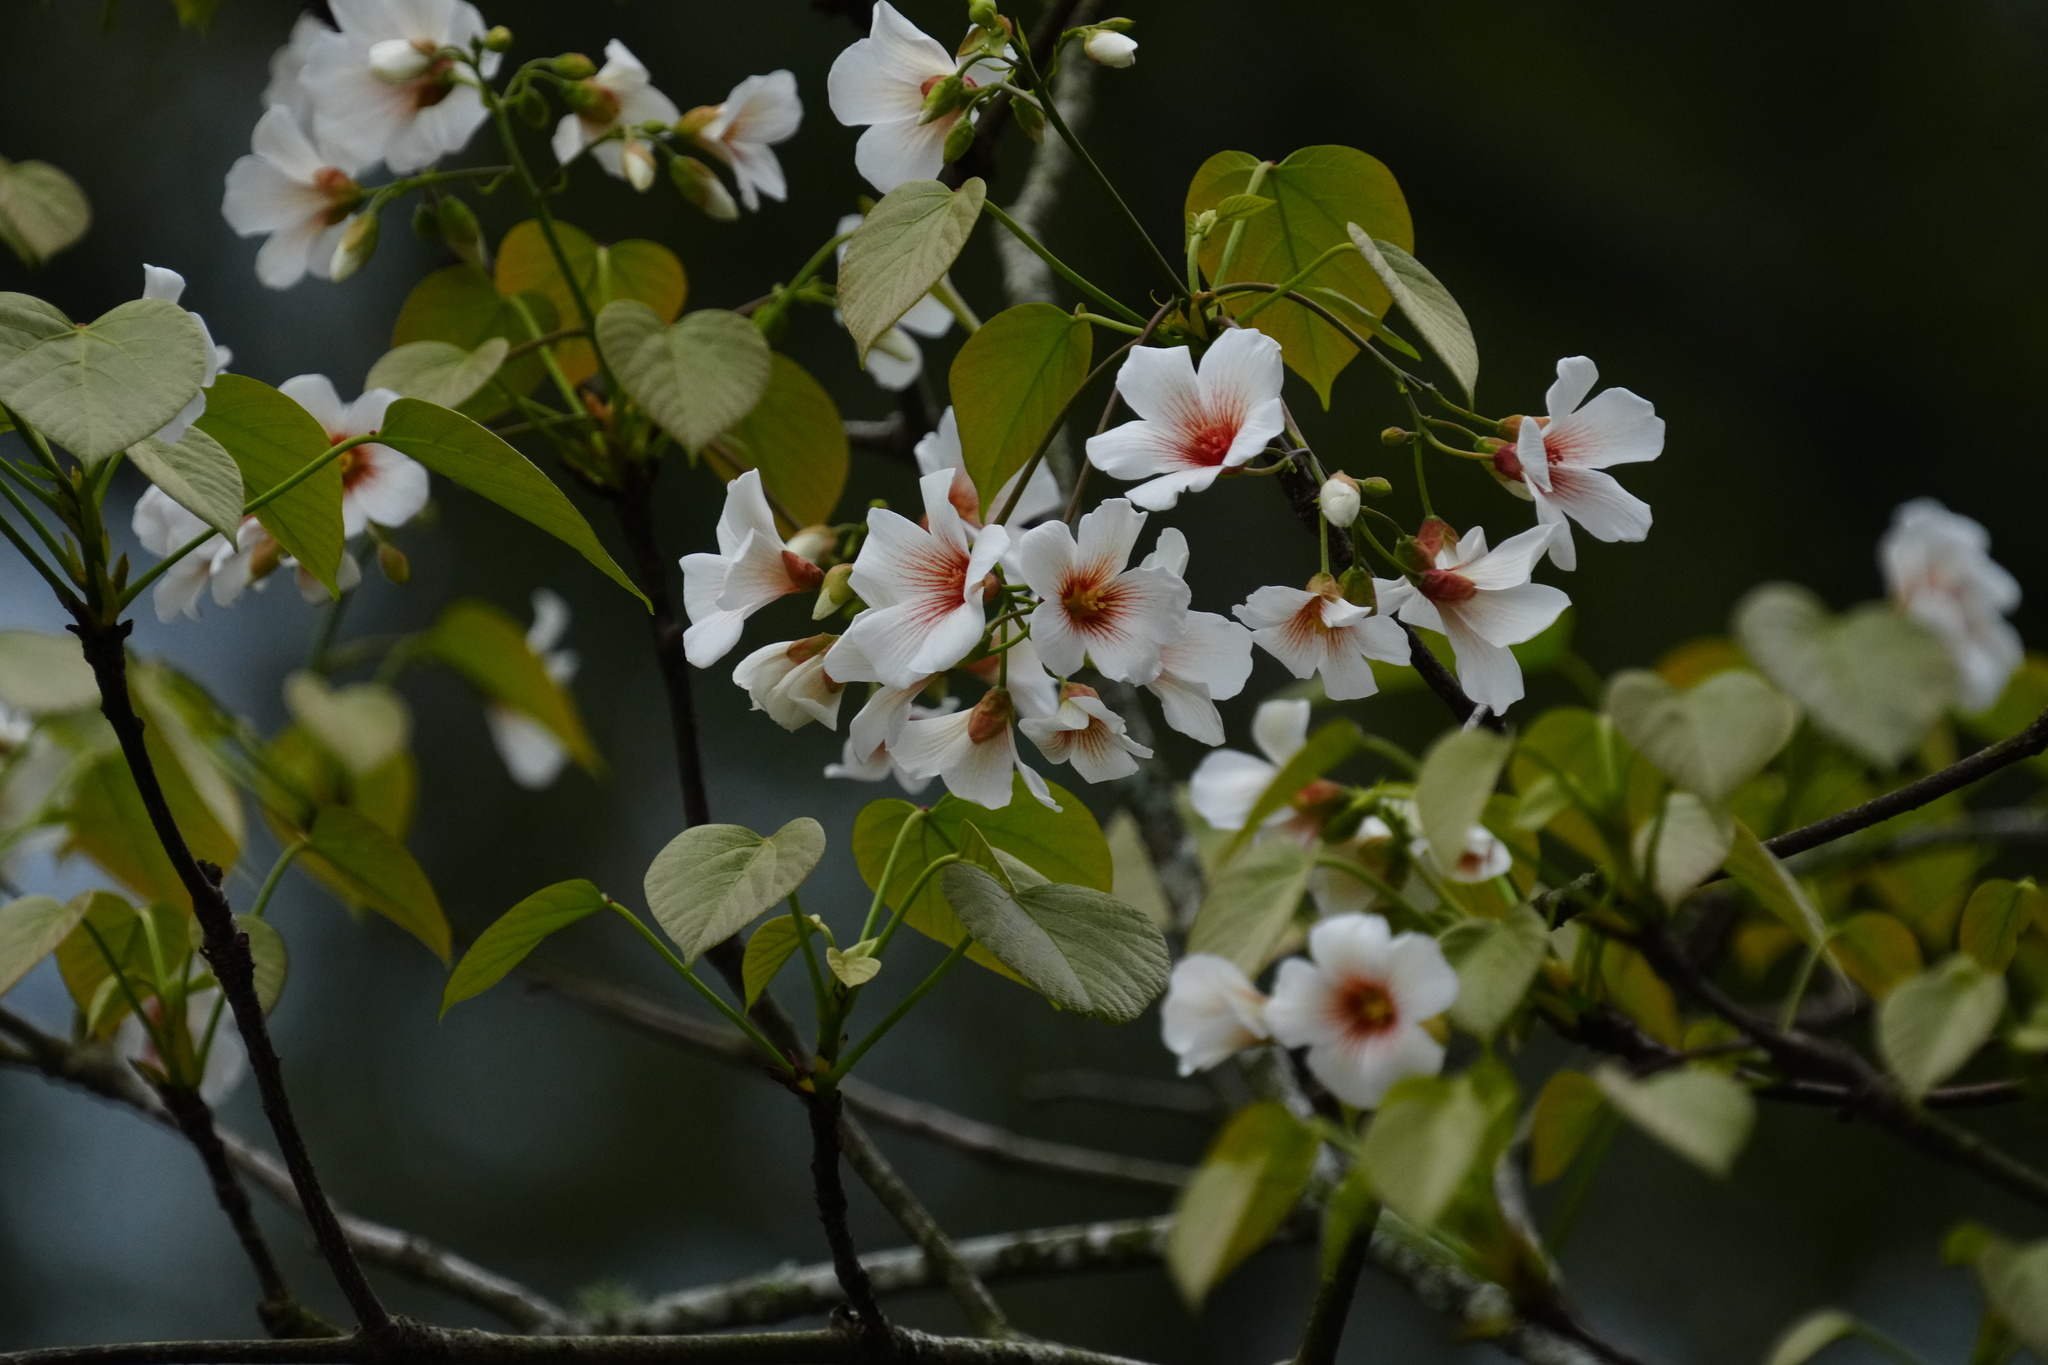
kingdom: Plantae
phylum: Tracheophyta
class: Magnoliopsida
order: Malpighiales
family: Euphorbiaceae
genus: Vernicia
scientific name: Vernicia fordii
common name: Tungoil tree
